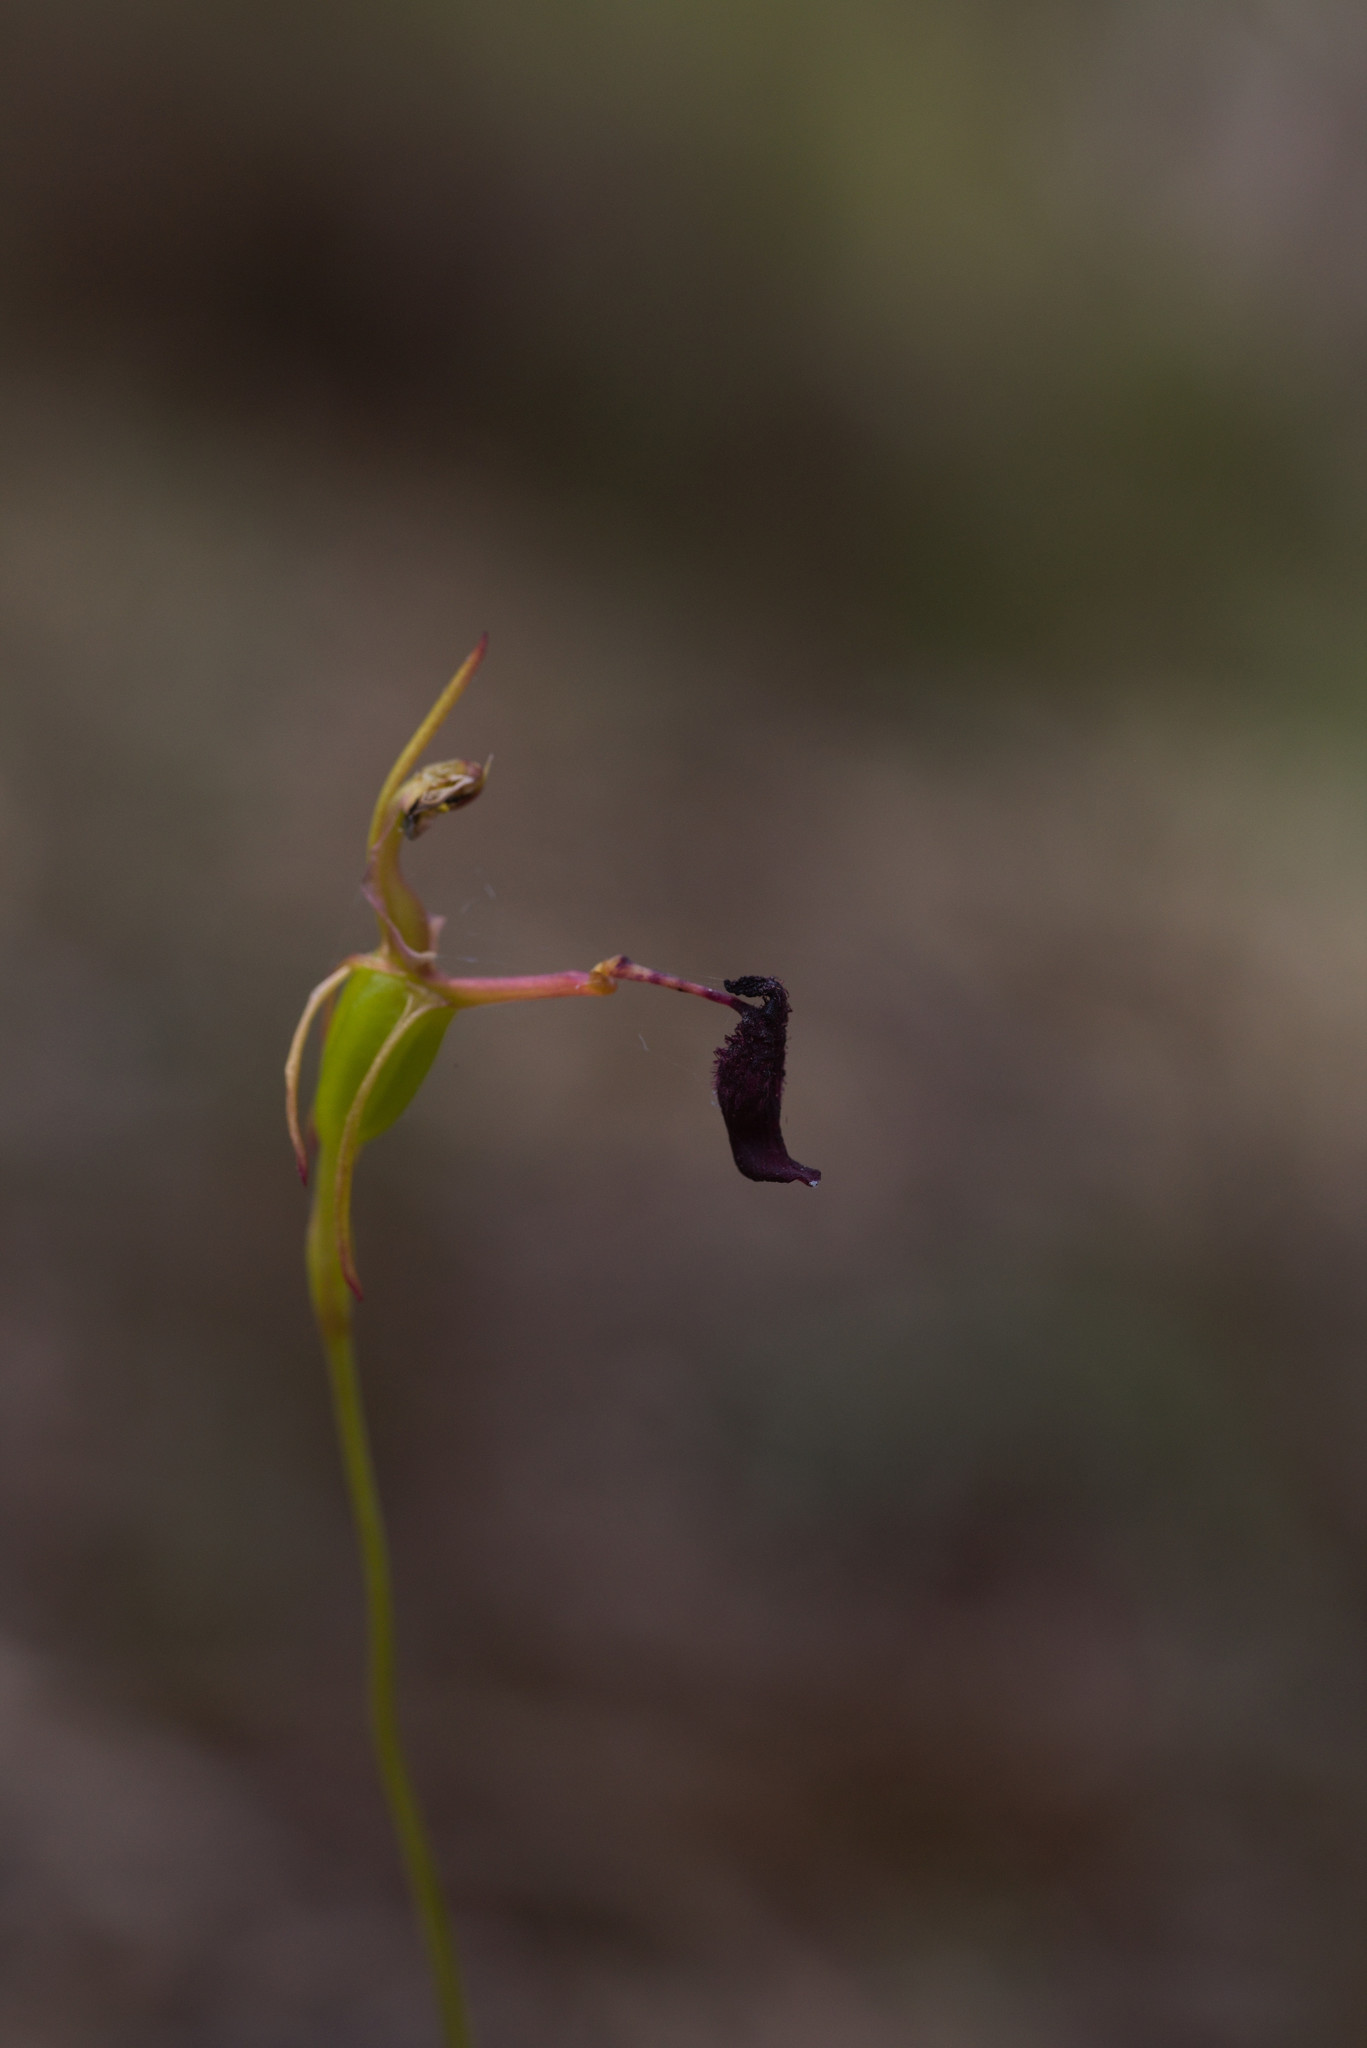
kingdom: Plantae
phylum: Tracheophyta
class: Liliopsida
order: Asparagales
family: Orchidaceae
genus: Drakaea
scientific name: Drakaea livida
